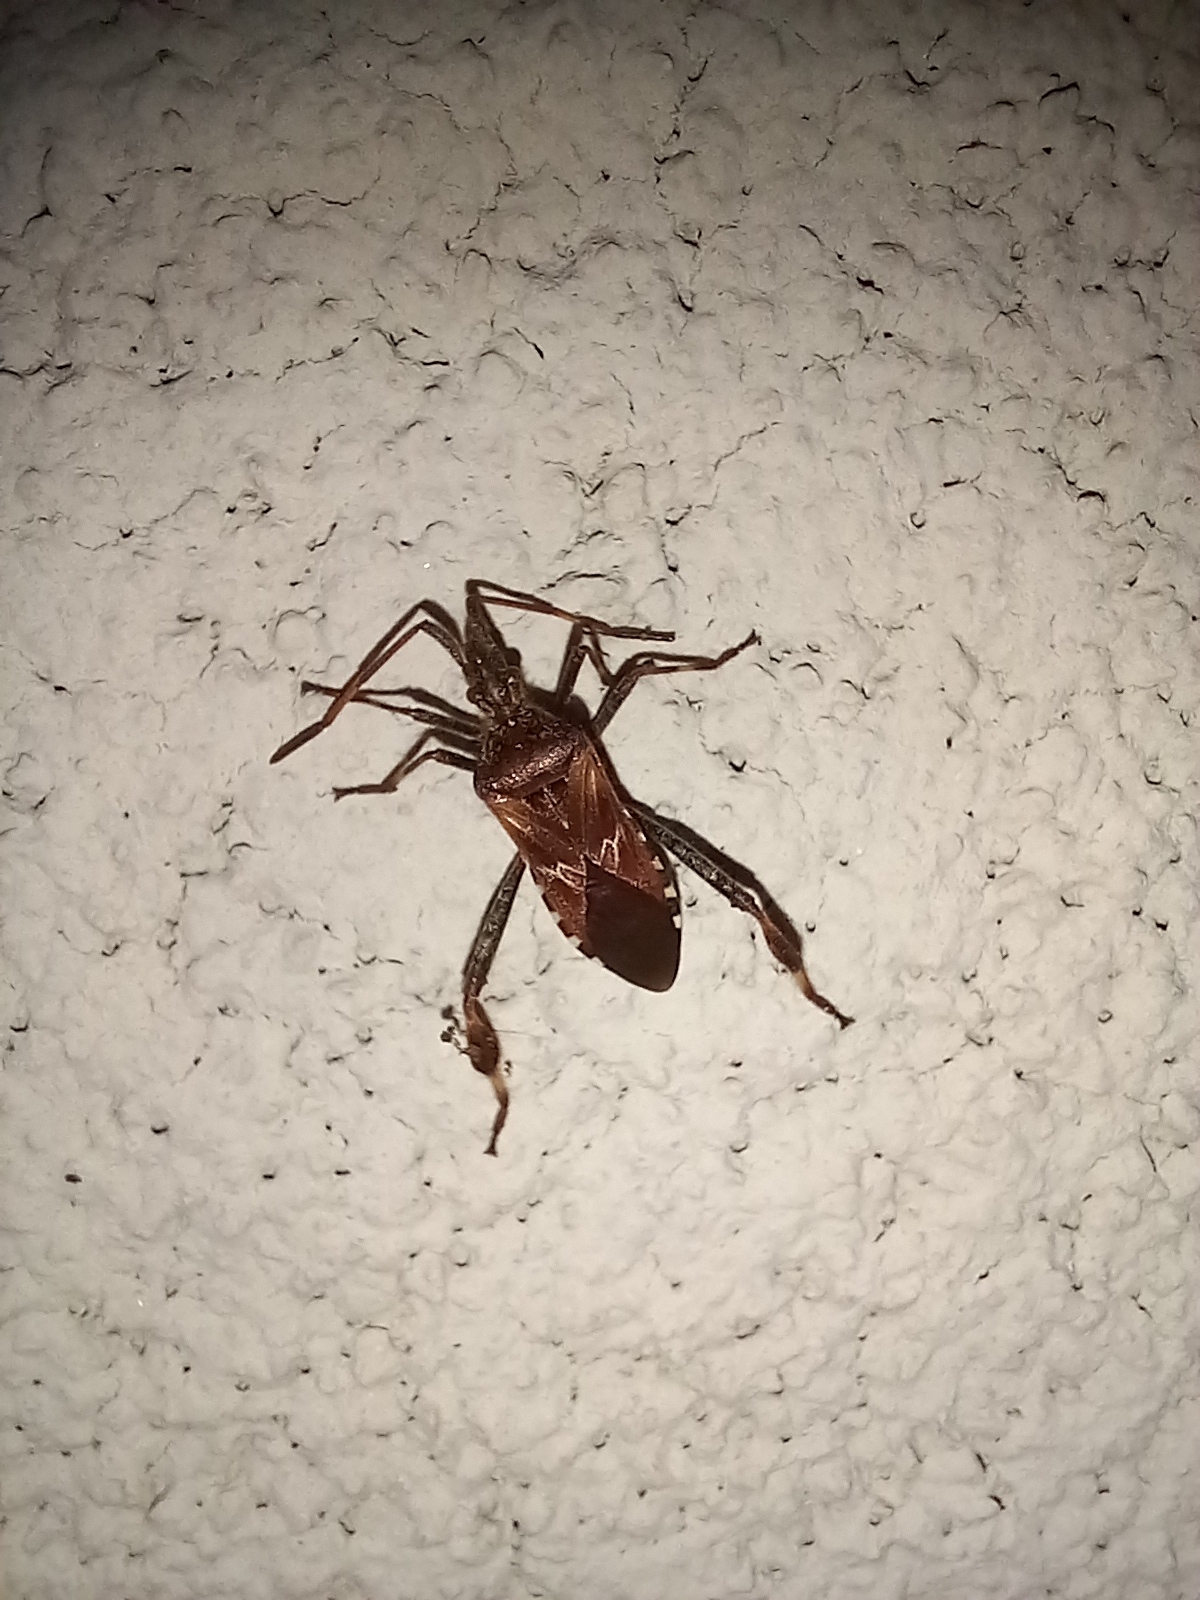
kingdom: Animalia
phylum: Arthropoda
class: Insecta
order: Hemiptera
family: Coreidae
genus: Leptoglossus
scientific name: Leptoglossus occidentalis
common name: Western conifer-seed bug
